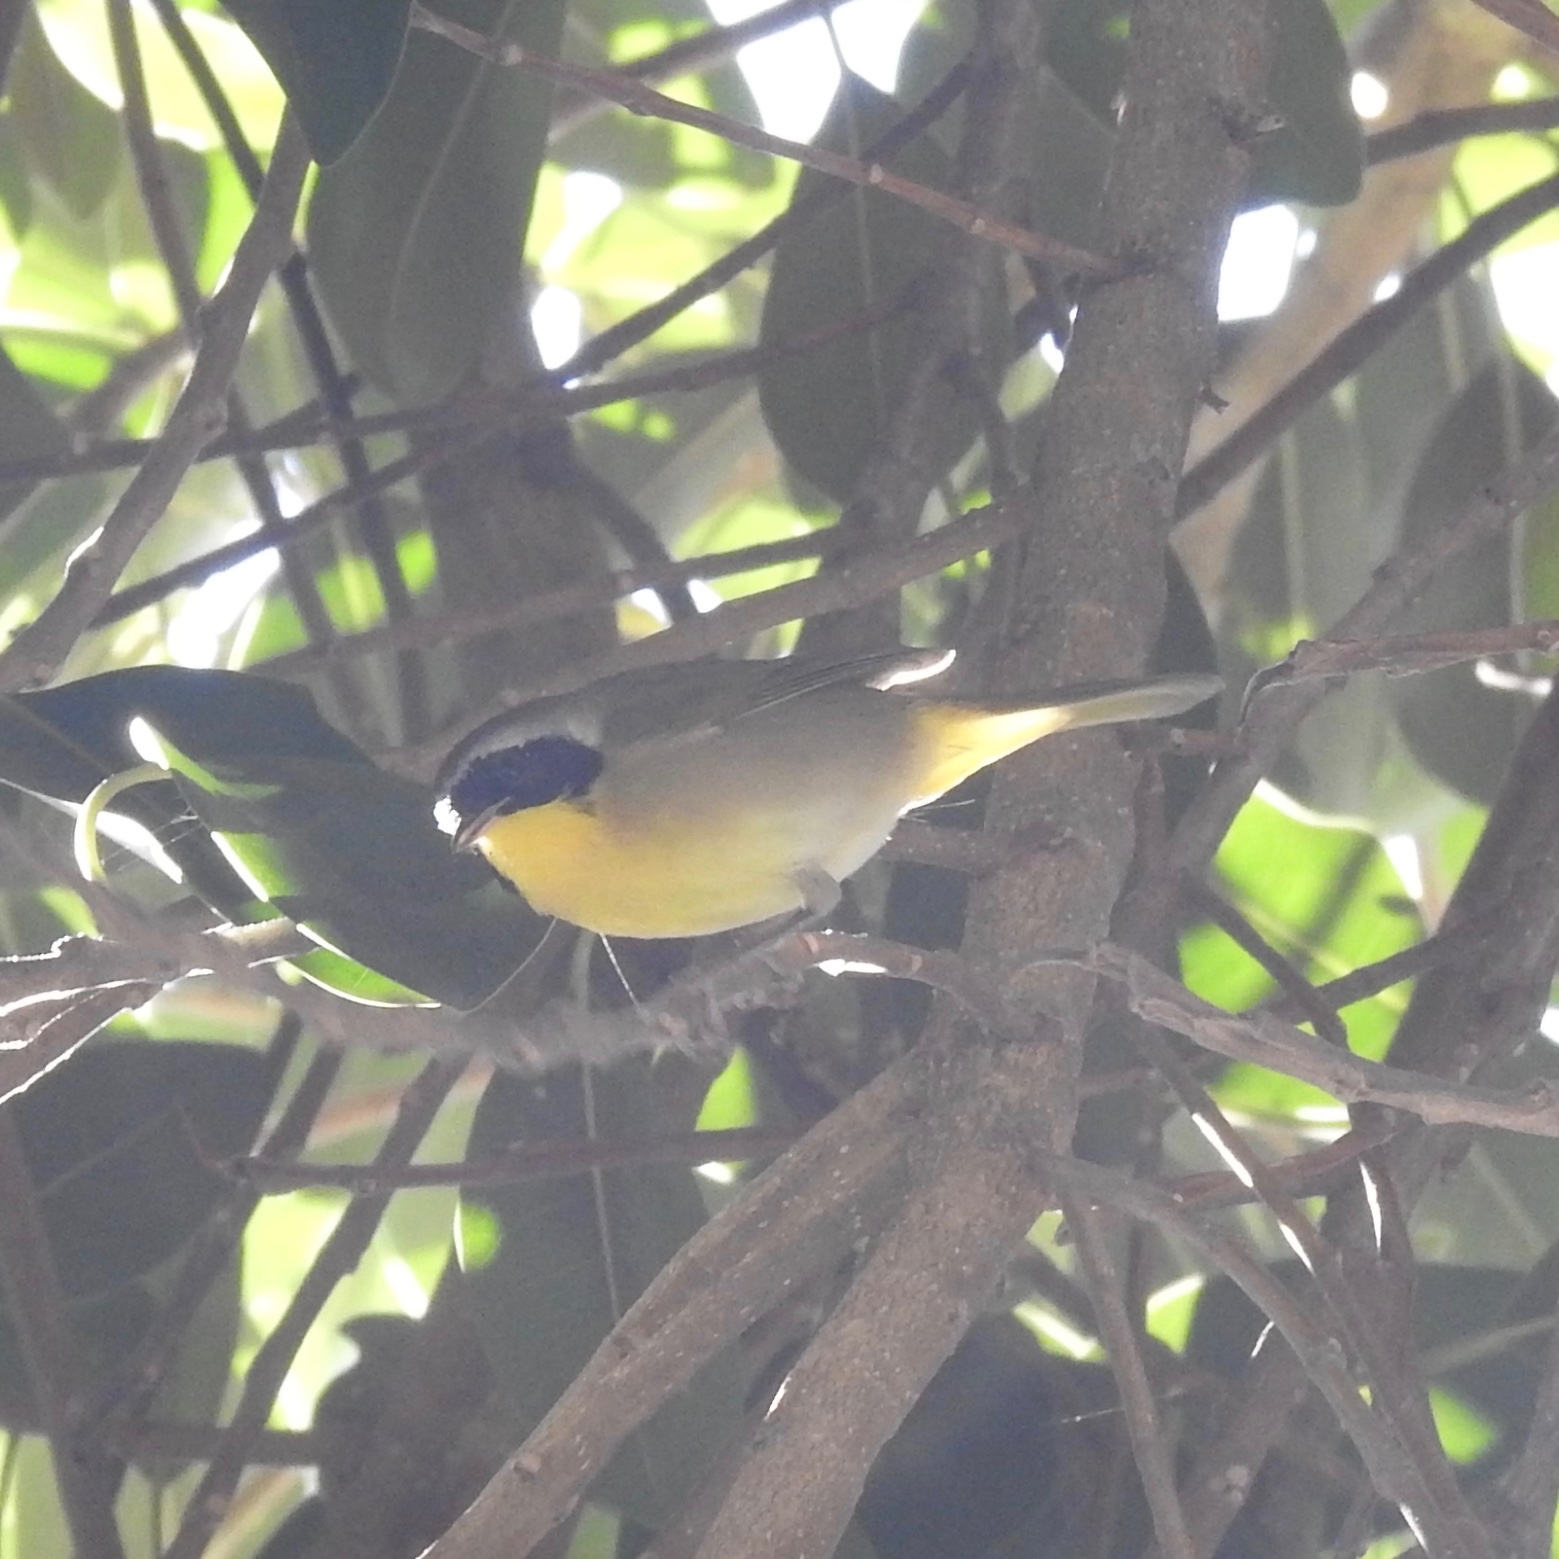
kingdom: Animalia
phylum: Chordata
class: Aves
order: Passeriformes
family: Parulidae
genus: Geothlypis
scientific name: Geothlypis trichas
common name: Common yellowthroat
